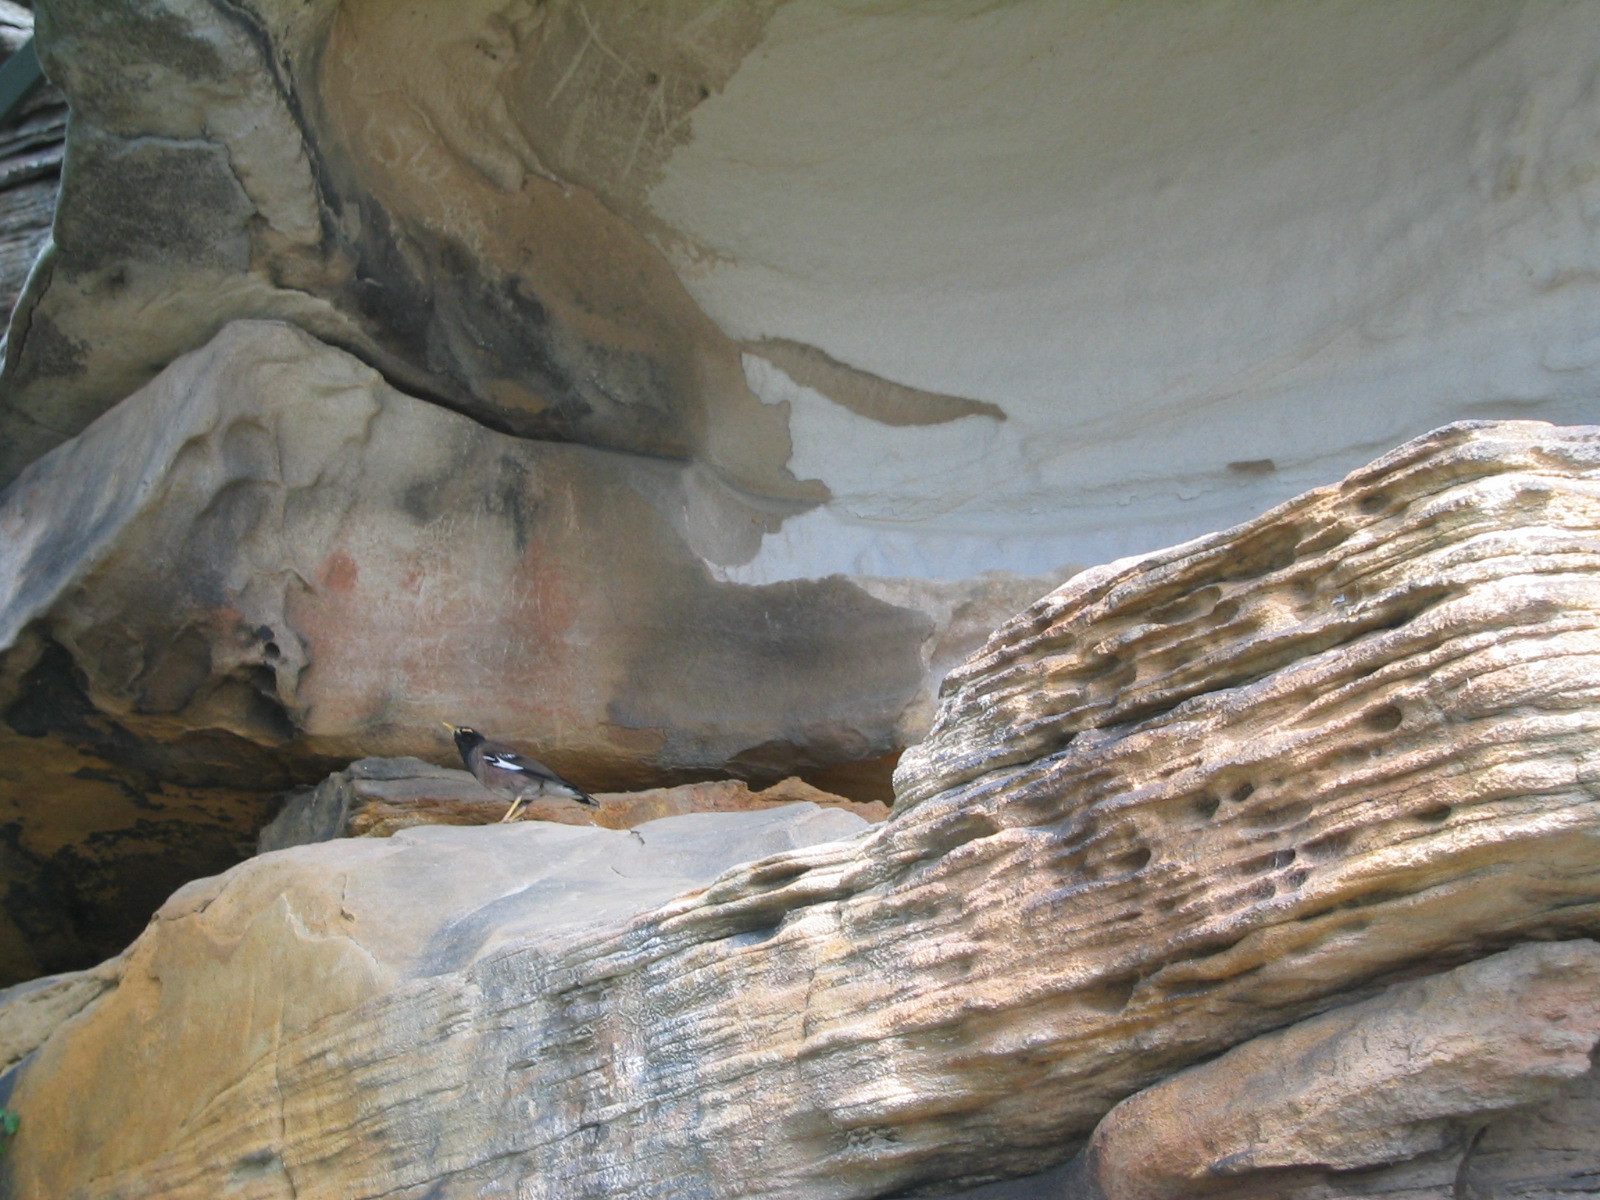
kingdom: Animalia
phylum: Chordata
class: Aves
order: Passeriformes
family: Sturnidae
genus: Acridotheres
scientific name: Acridotheres tristis
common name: Common myna
